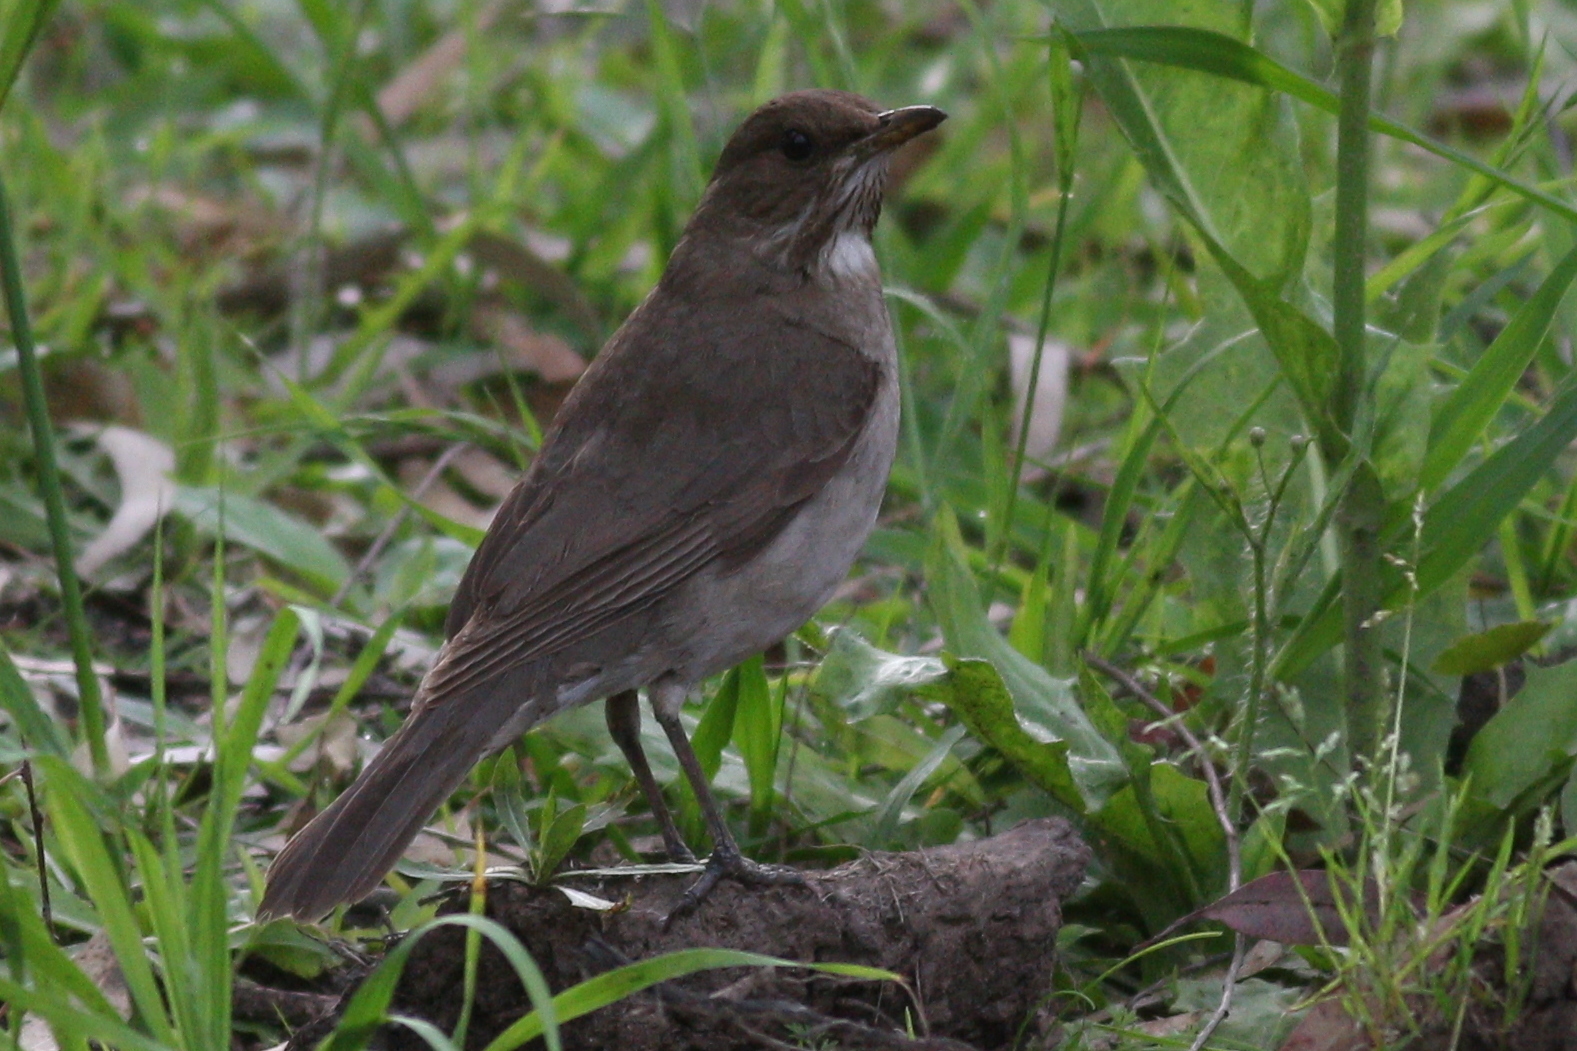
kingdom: Animalia
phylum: Chordata
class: Aves
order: Passeriformes
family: Turdidae
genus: Turdus
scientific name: Turdus amaurochalinus
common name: Creamy-bellied thrush
